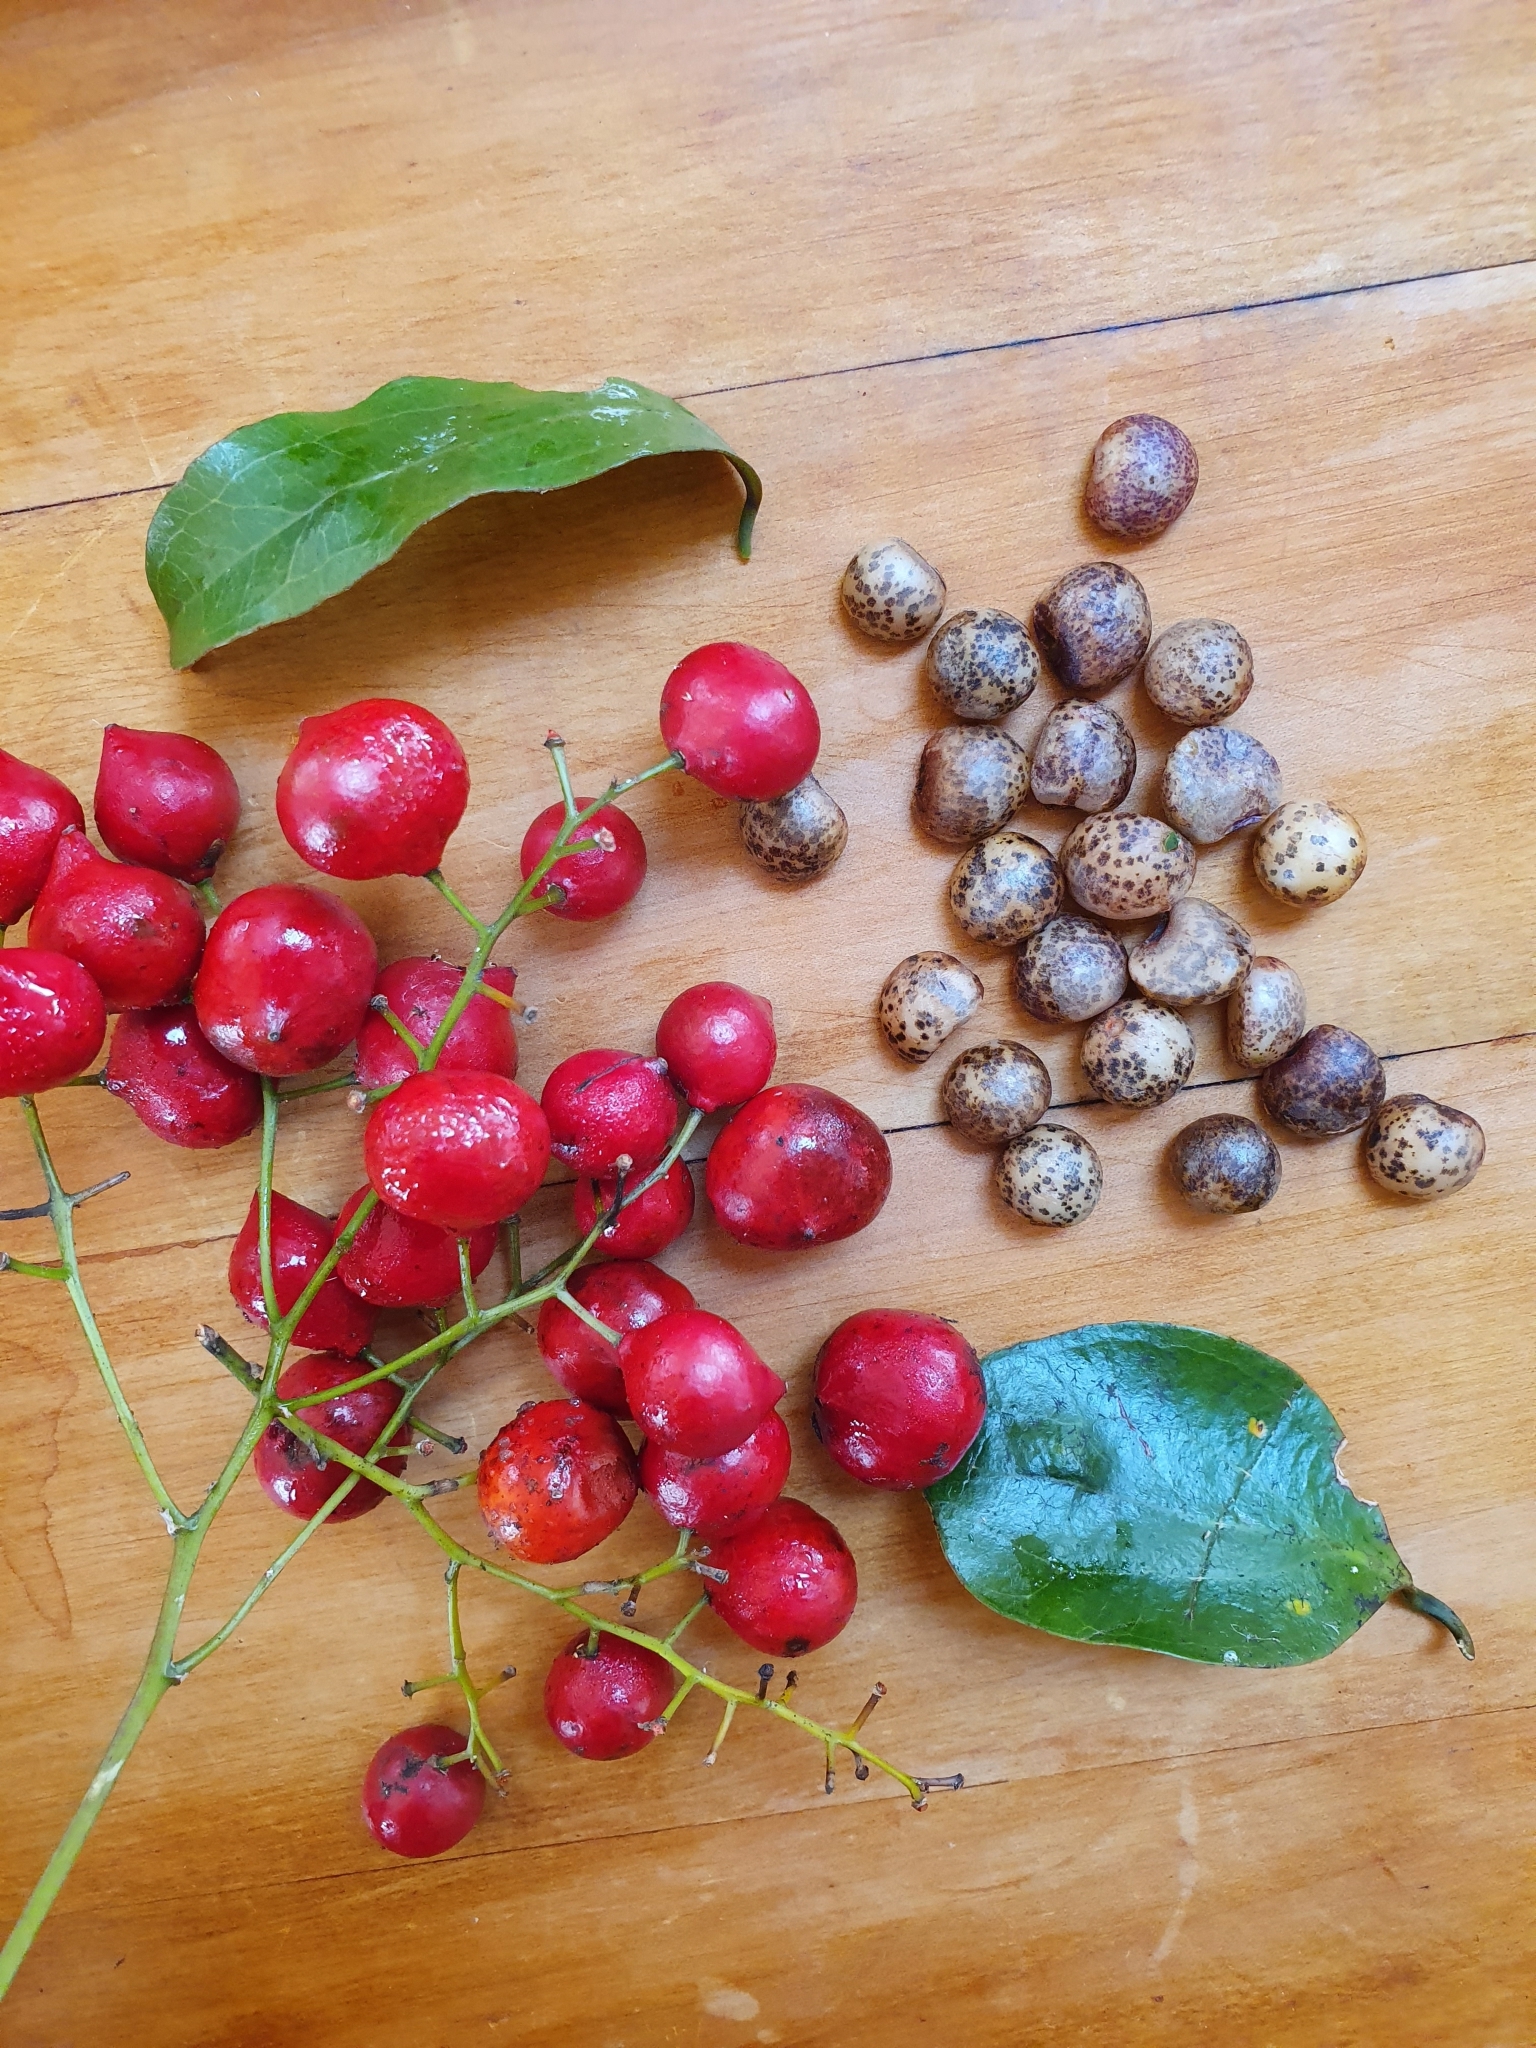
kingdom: Plantae
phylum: Tracheophyta
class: Liliopsida
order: Liliales
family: Ripogonaceae
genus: Ripogonum
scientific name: Ripogonum scandens
